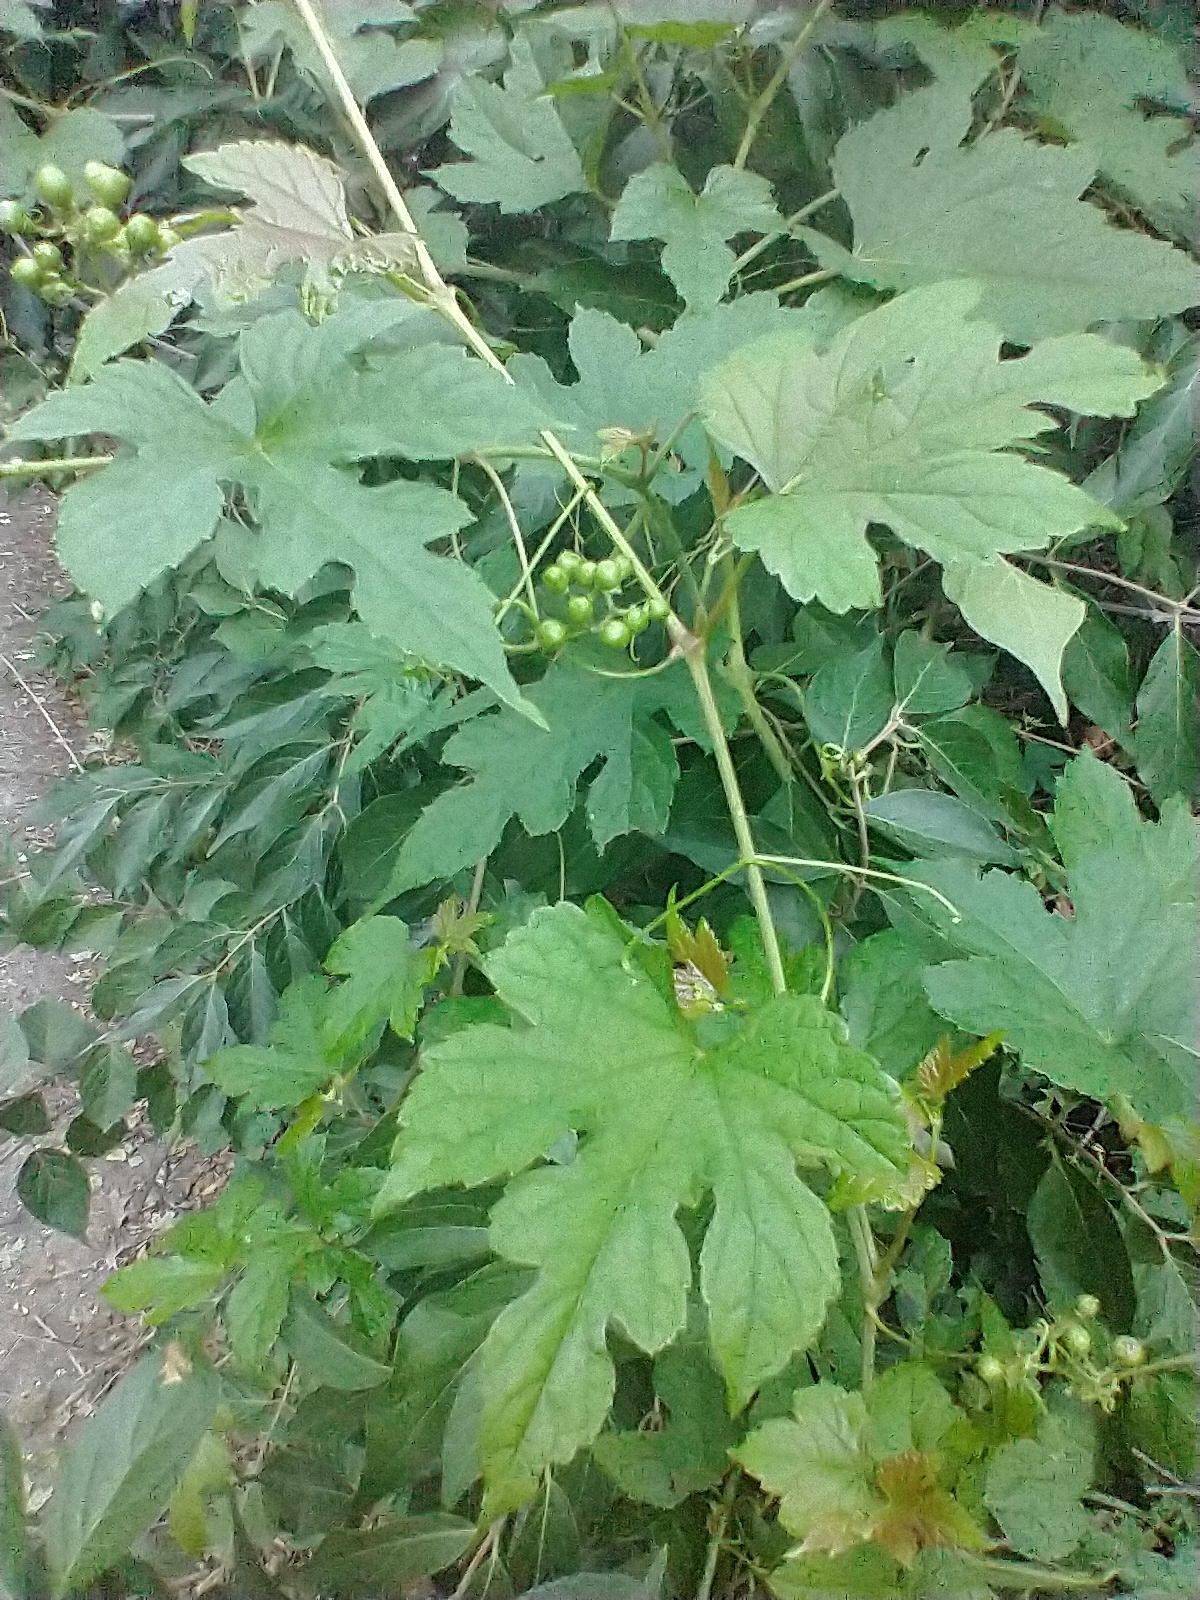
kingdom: Plantae
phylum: Tracheophyta
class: Magnoliopsida
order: Vitales
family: Vitaceae
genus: Ampelopsis
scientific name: Ampelopsis glandulosa
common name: Amur peppervine
